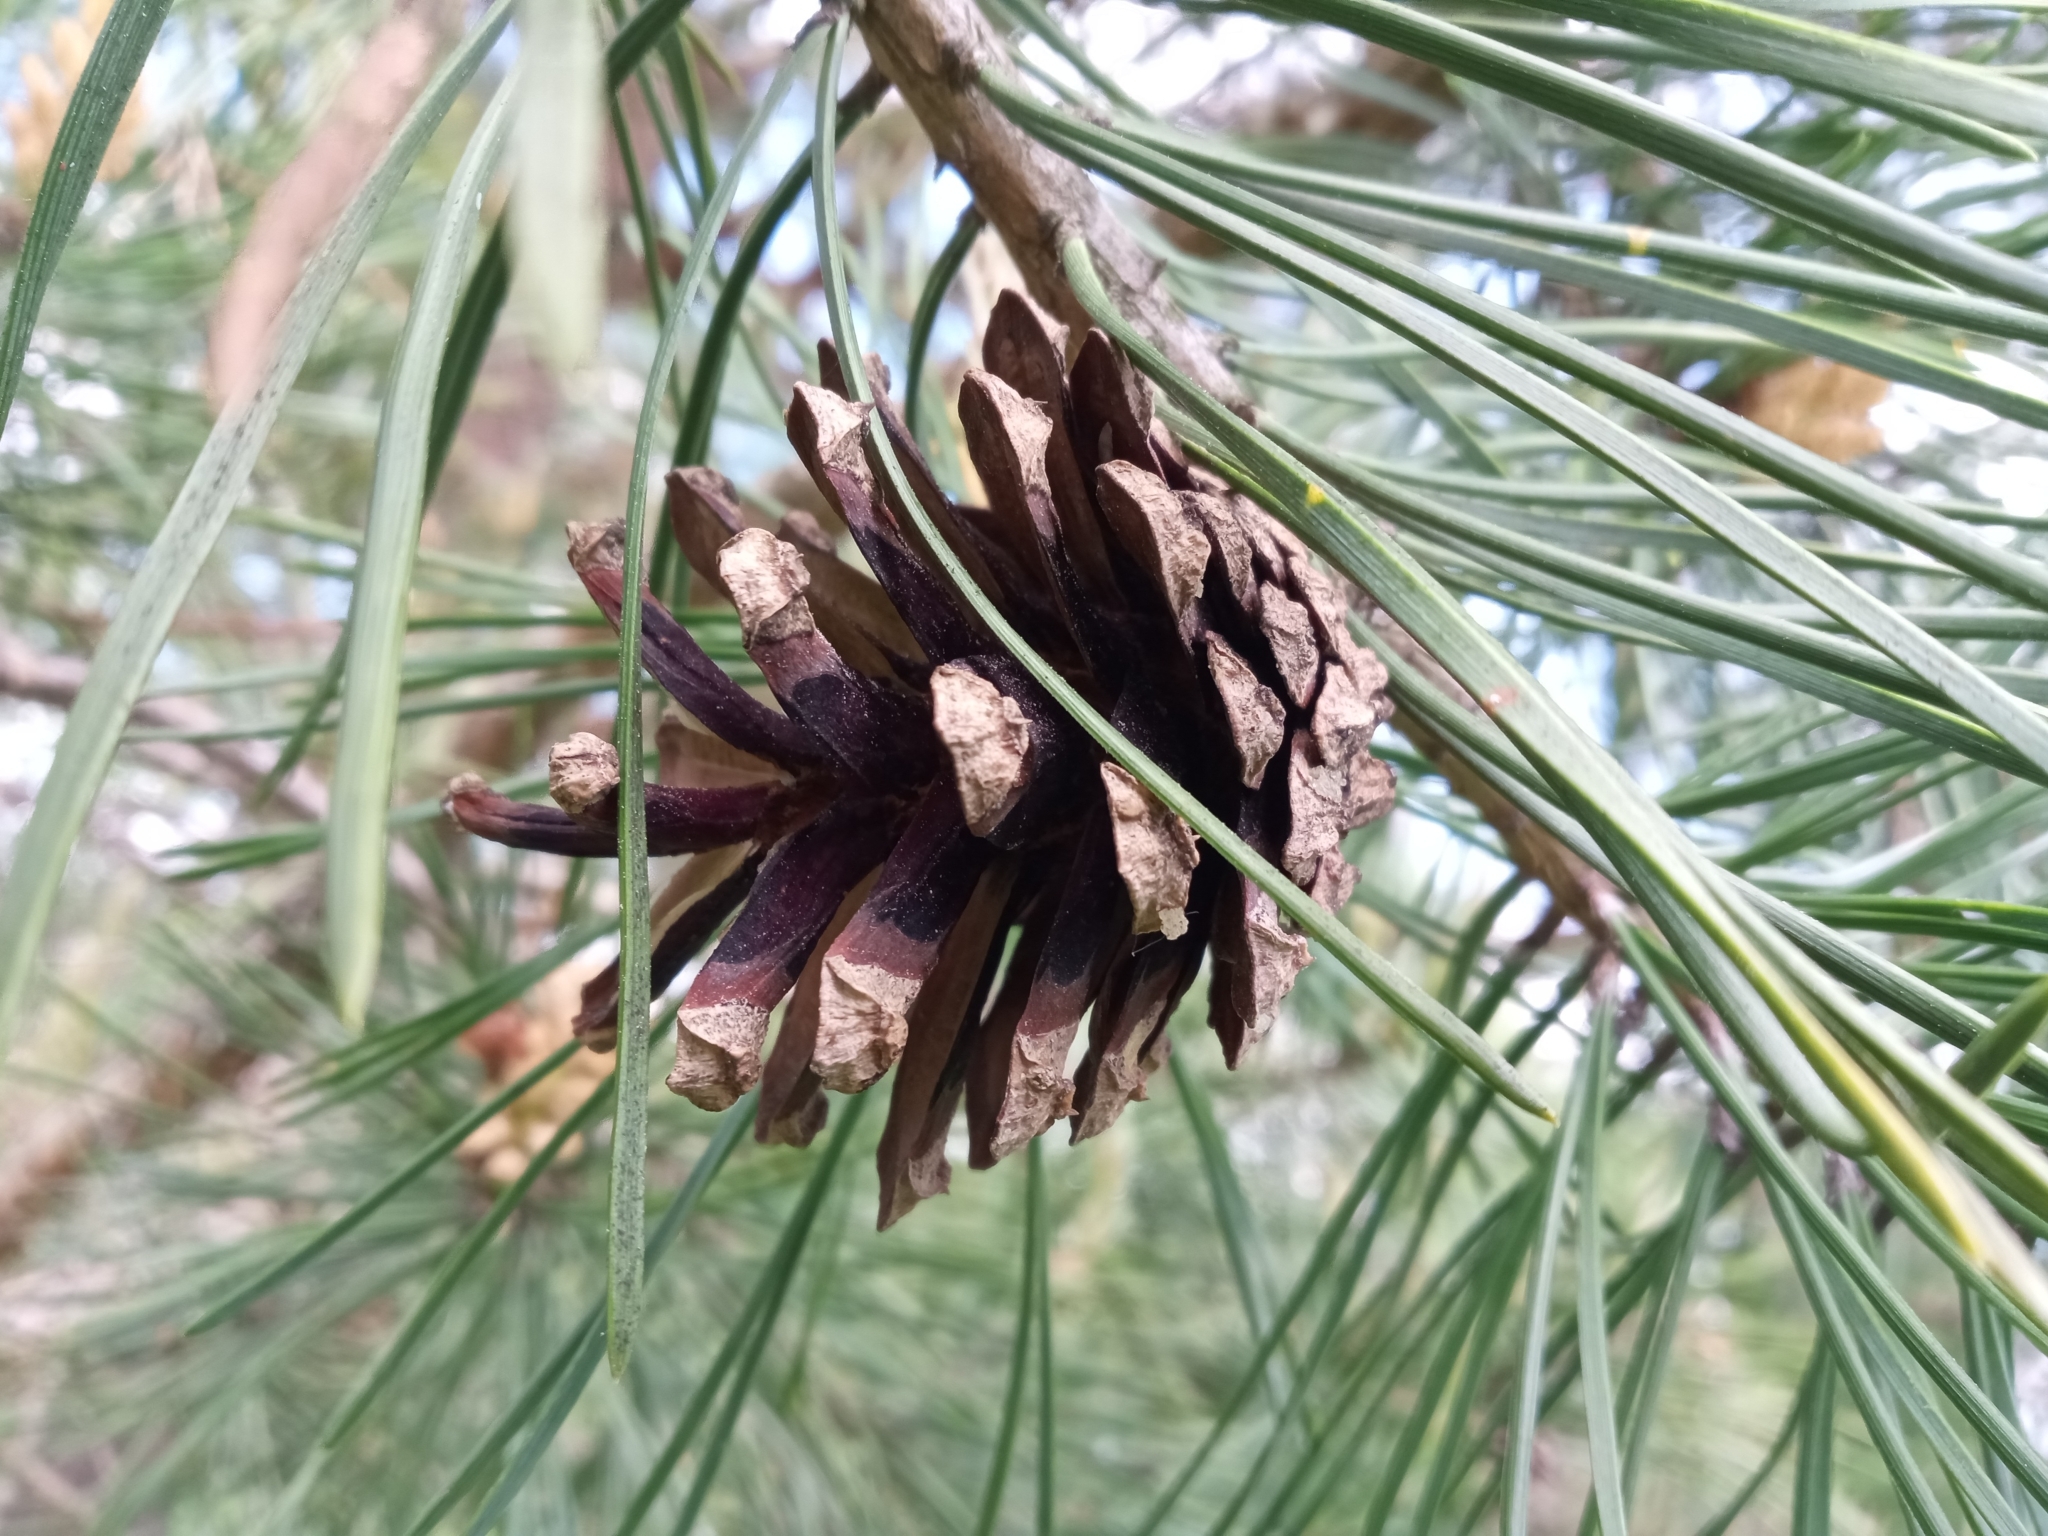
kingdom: Plantae
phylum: Tracheophyta
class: Pinopsida
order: Pinales
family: Pinaceae
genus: Pinus
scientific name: Pinus sylvestris
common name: Scots pine
